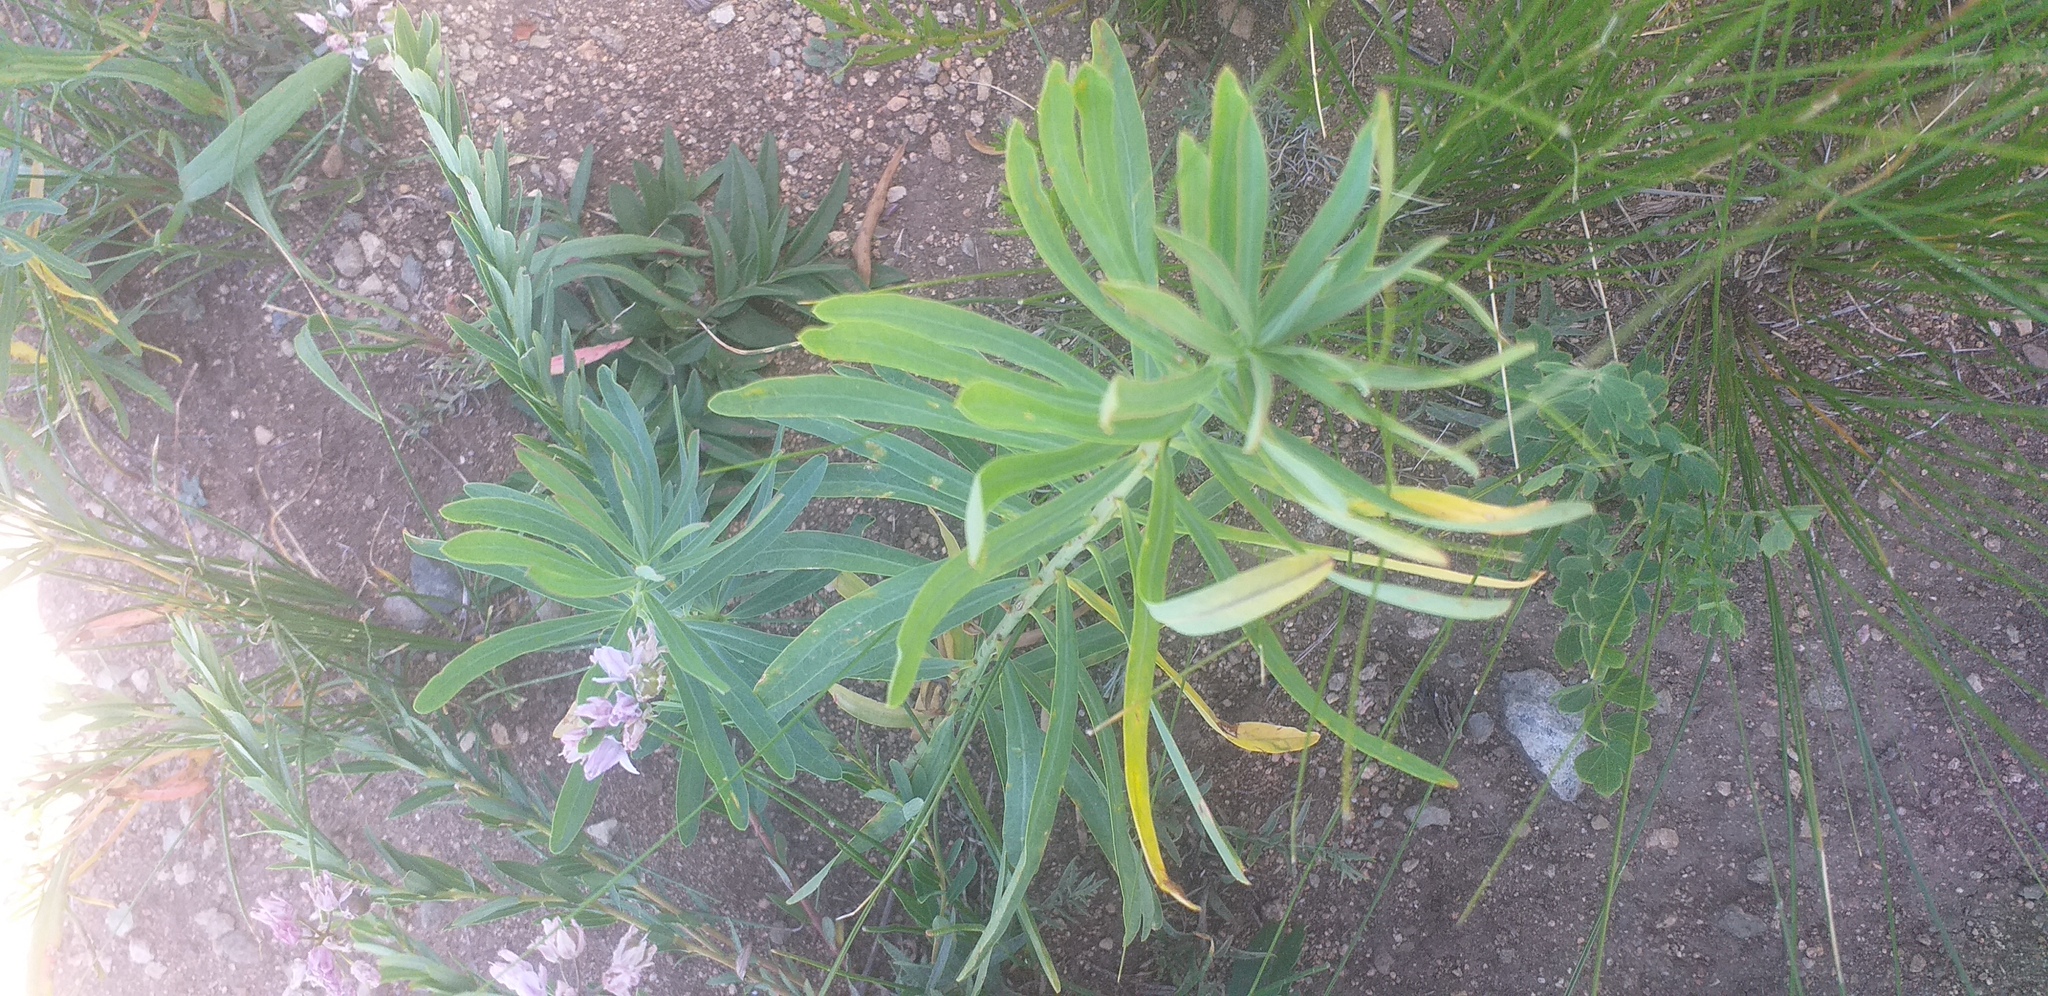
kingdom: Plantae
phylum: Tracheophyta
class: Magnoliopsida
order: Malpighiales
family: Euphorbiaceae
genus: Euphorbia
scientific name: Euphorbia esula
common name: Leafy spurge
